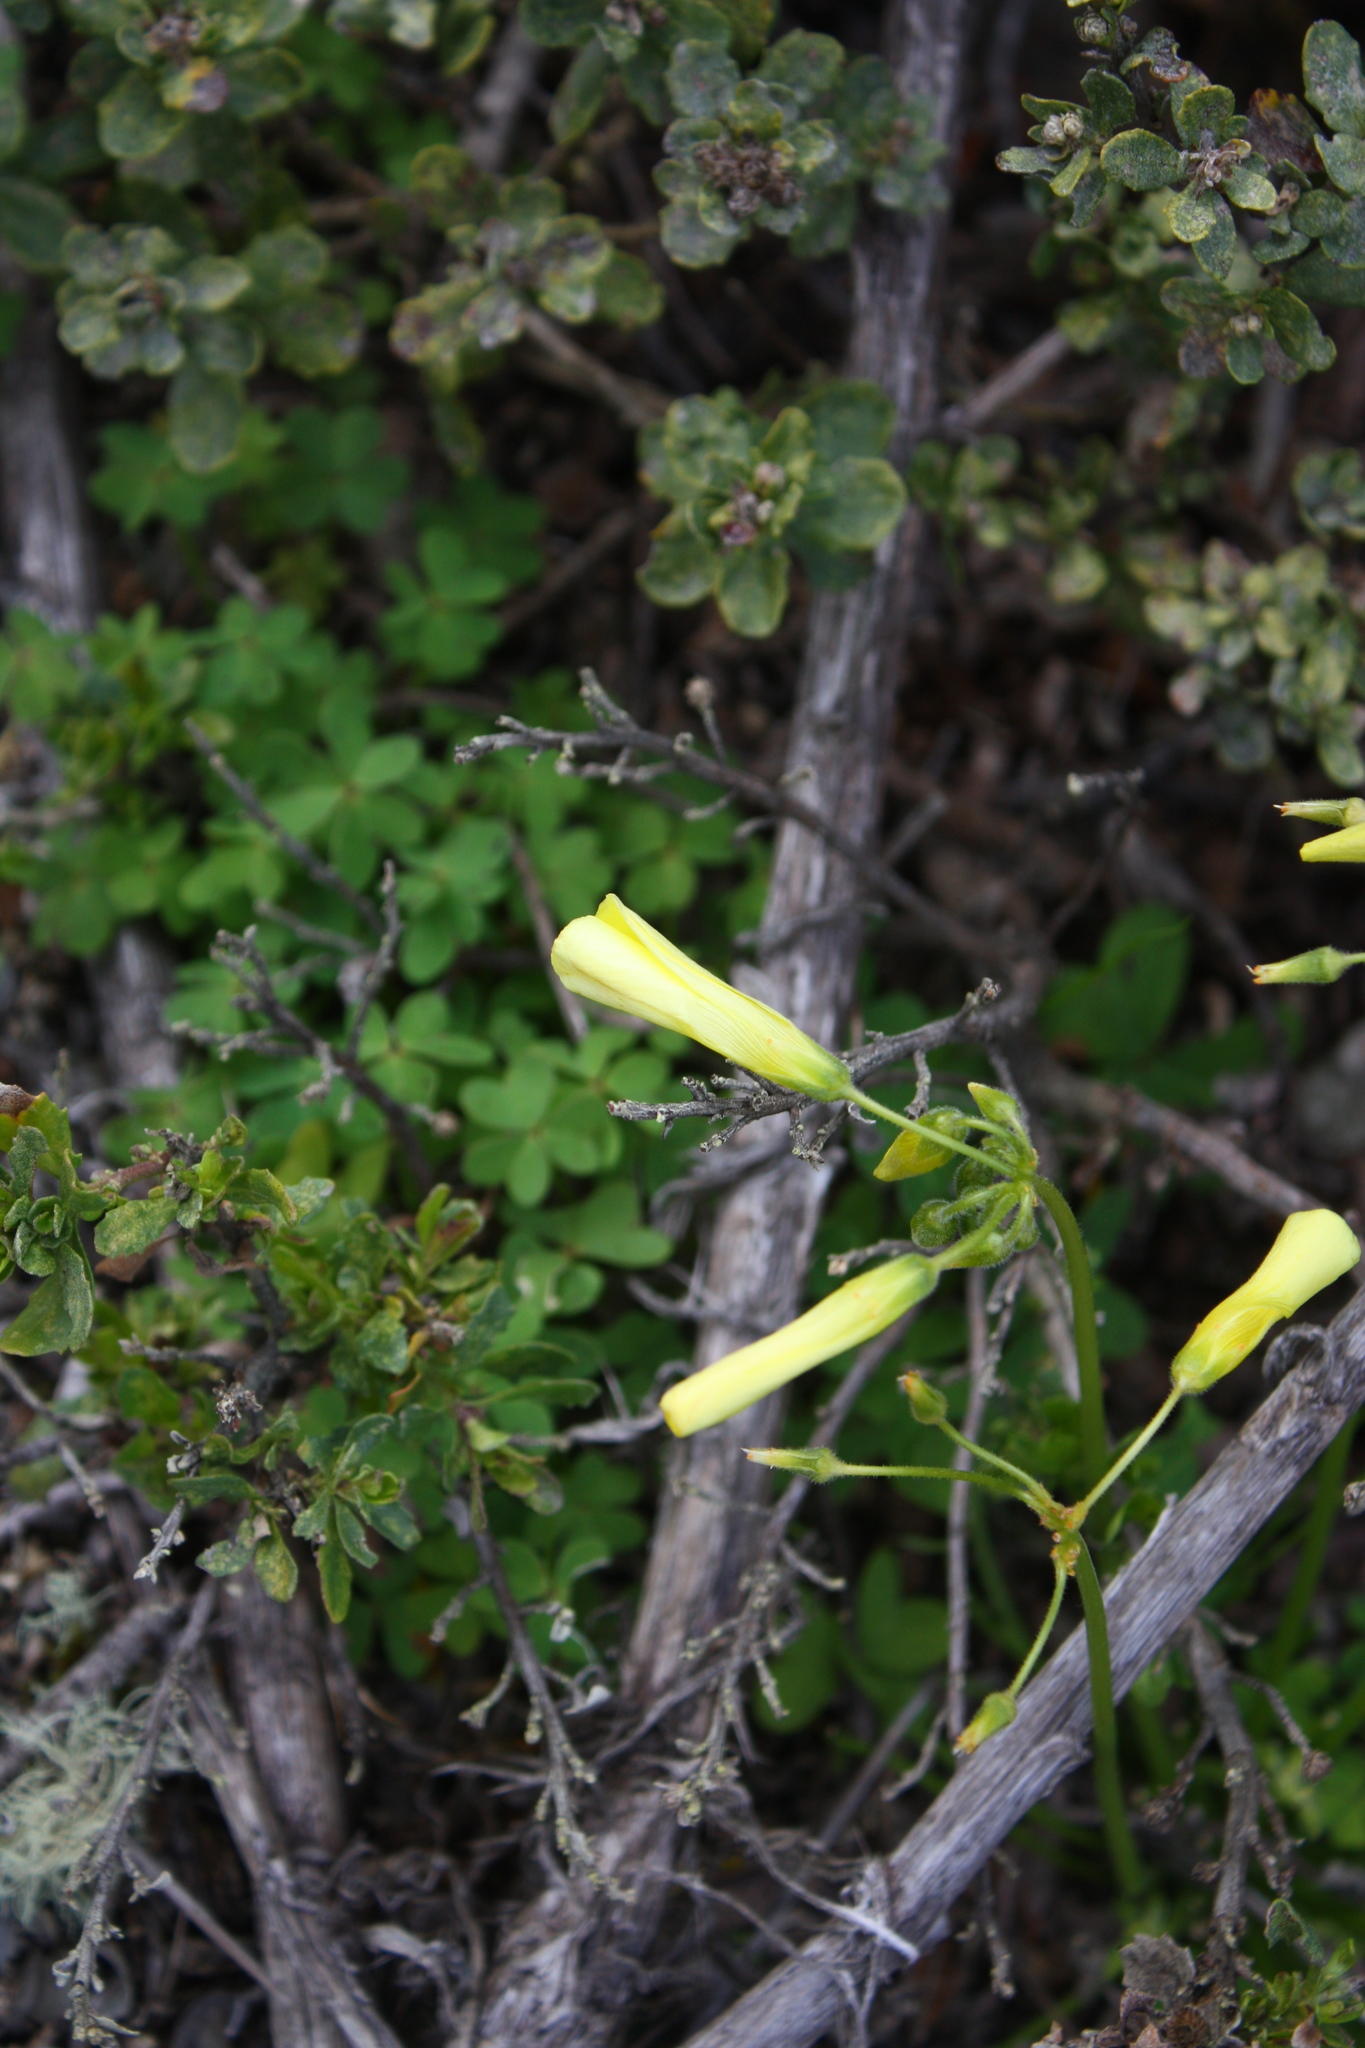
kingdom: Plantae
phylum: Tracheophyta
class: Magnoliopsida
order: Oxalidales
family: Oxalidaceae
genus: Oxalis
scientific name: Oxalis pes-caprae
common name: Bermuda-buttercup
